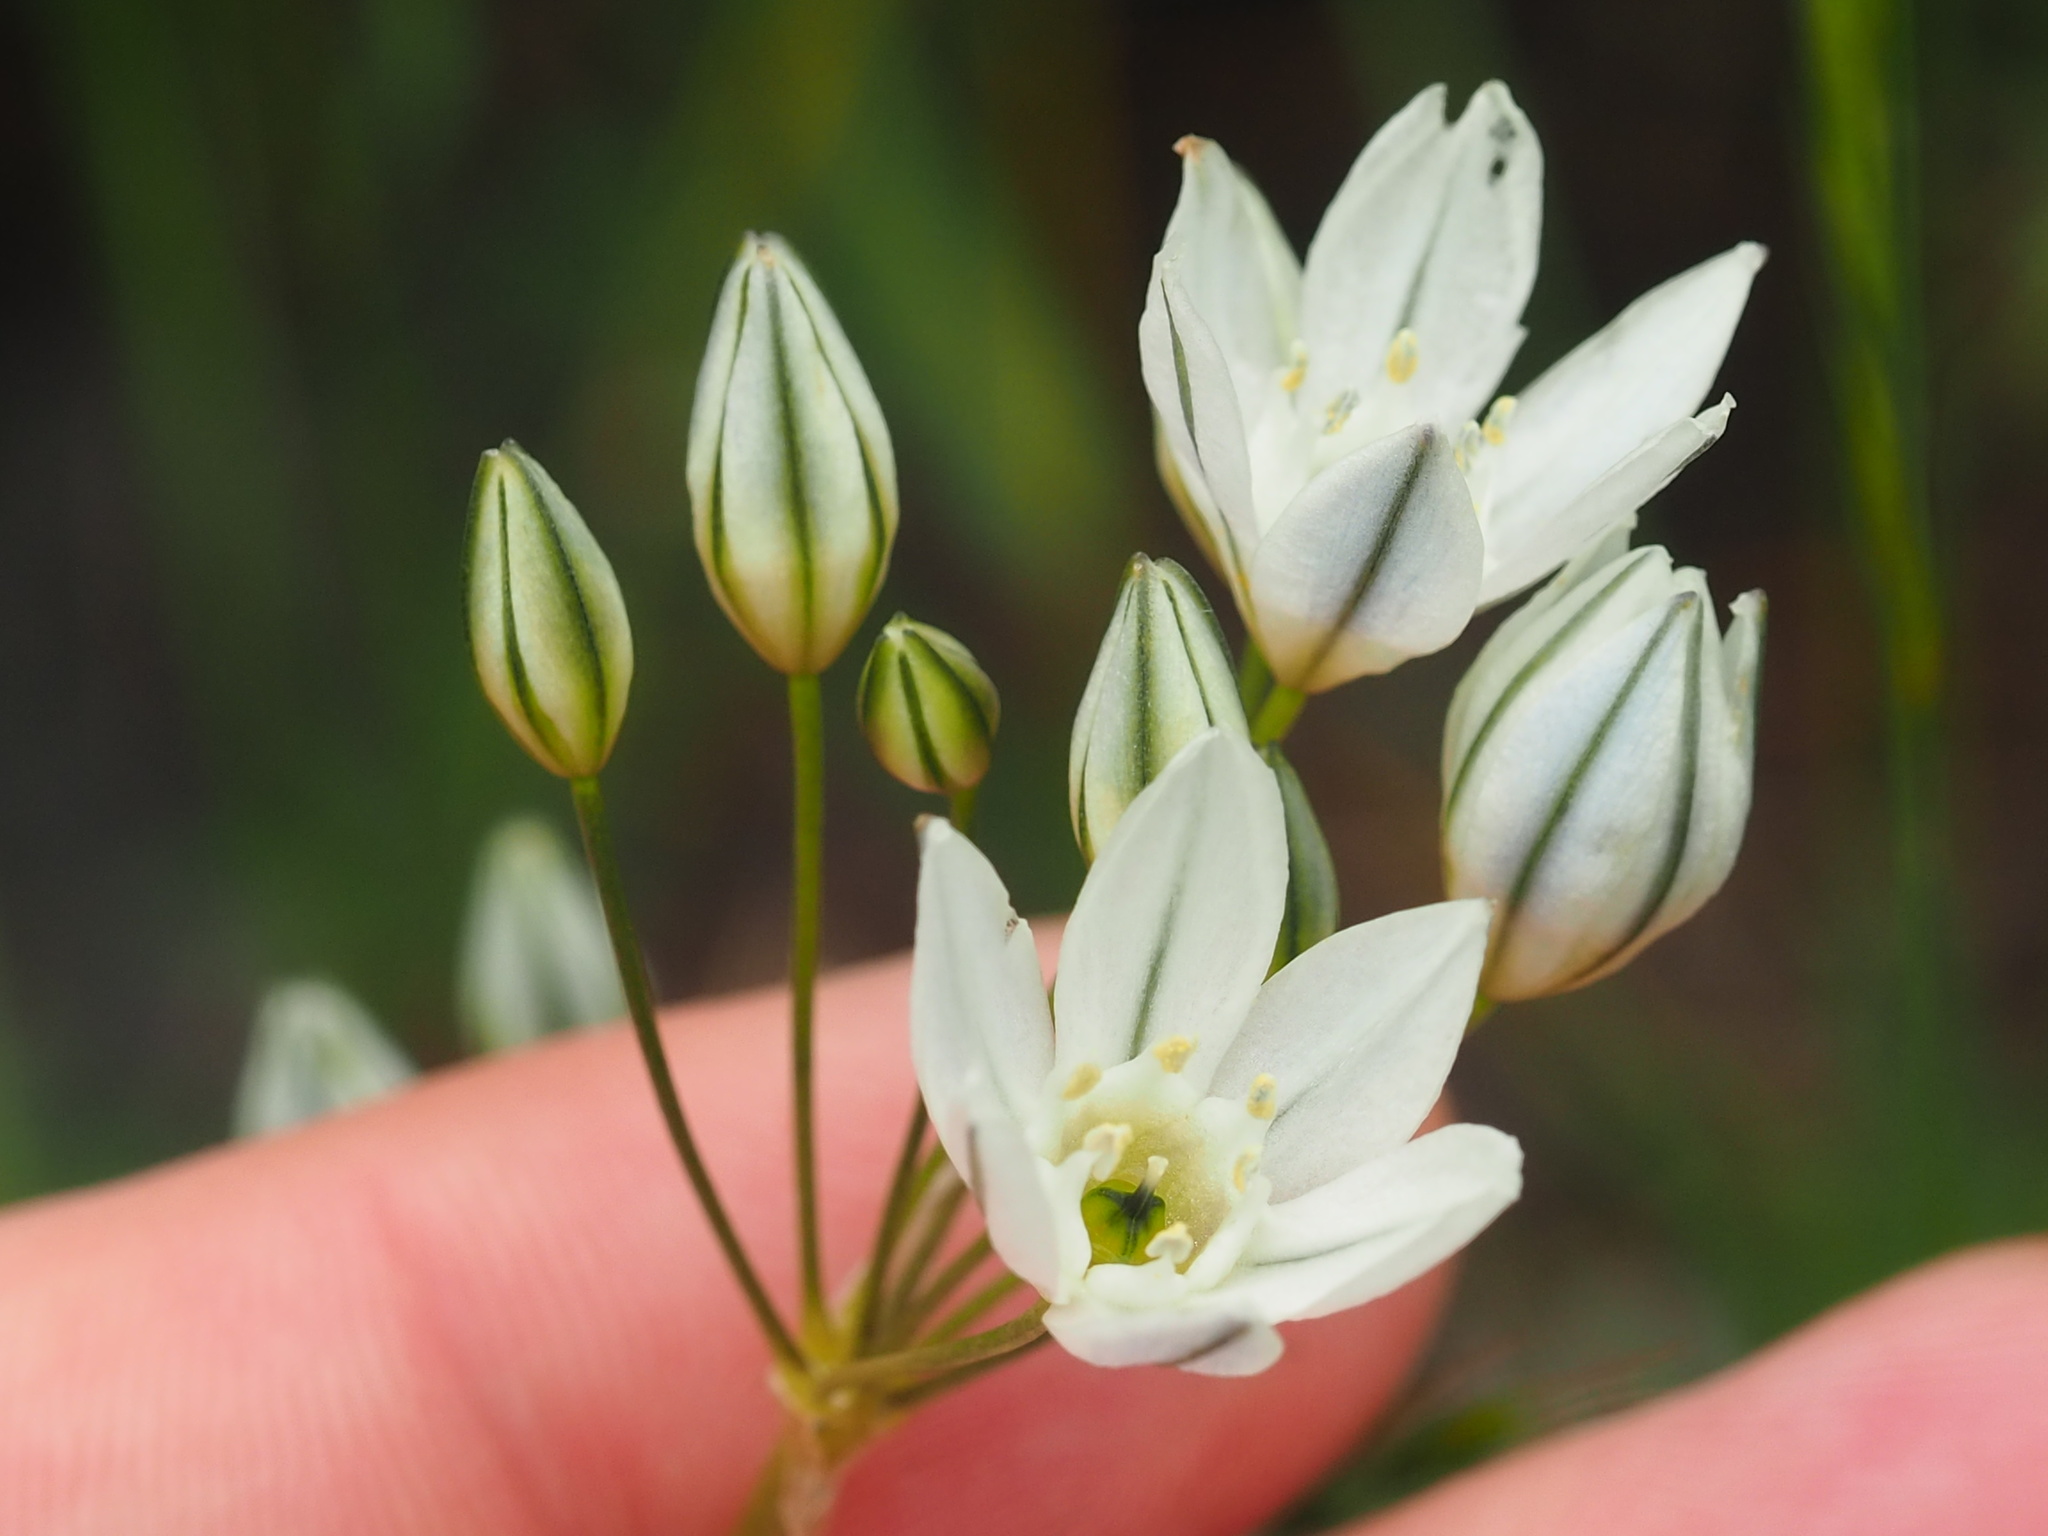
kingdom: Plantae
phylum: Tracheophyta
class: Liliopsida
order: Asparagales
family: Asparagaceae
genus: Triteleia
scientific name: Triteleia hyacinthina
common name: White brodiaea
